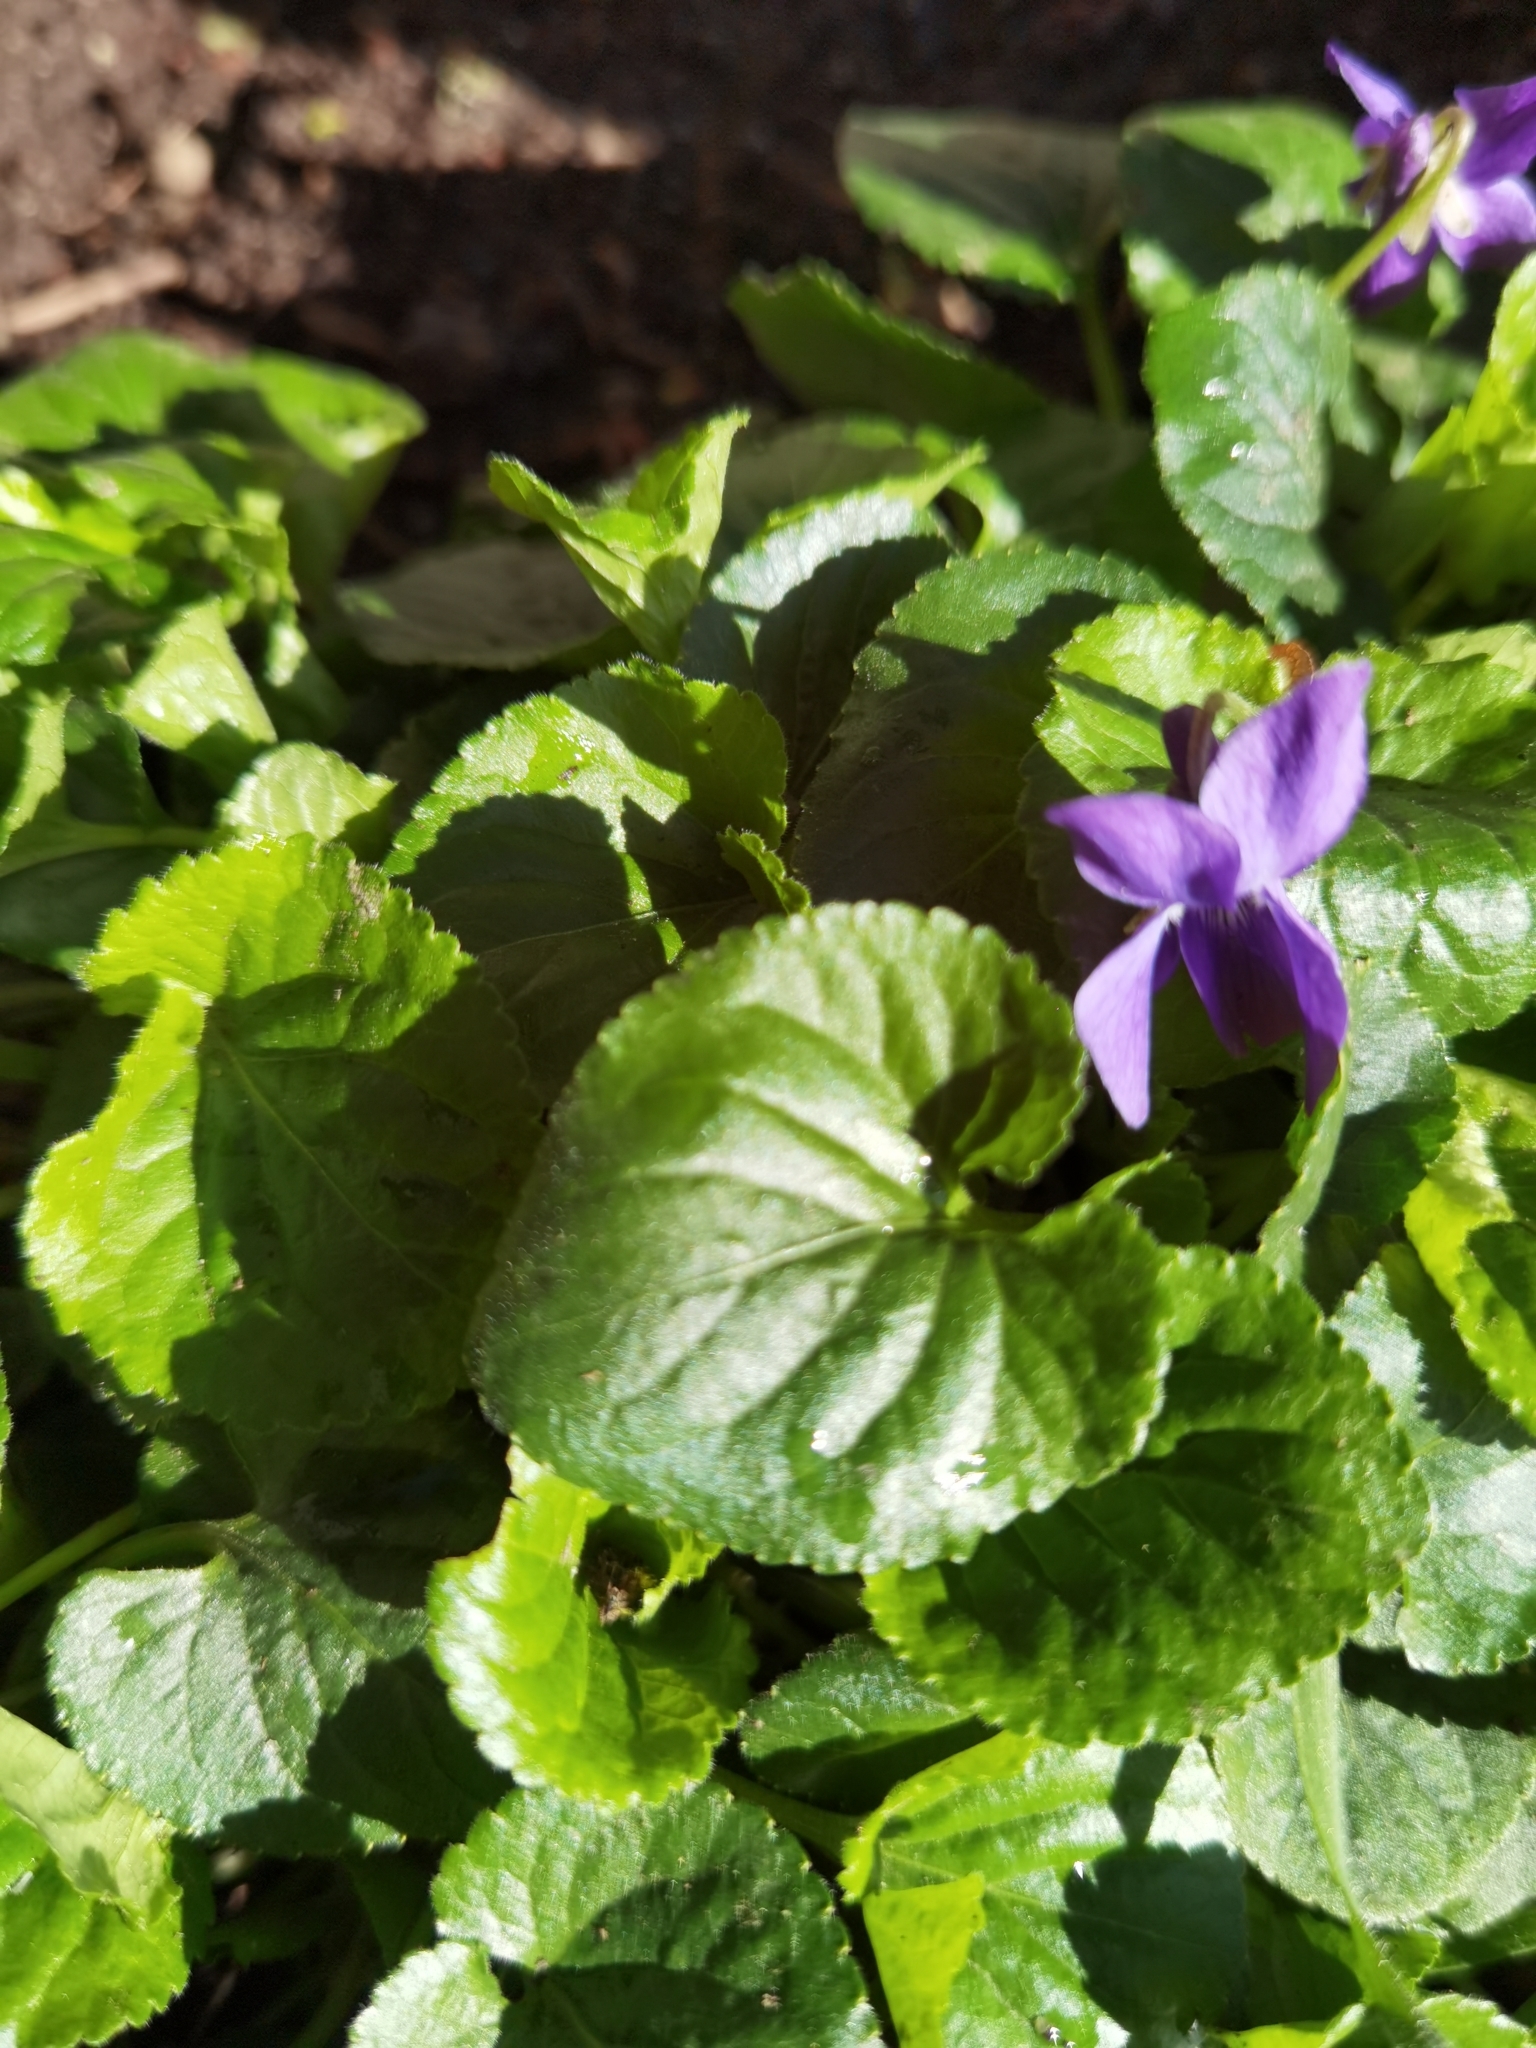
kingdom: Plantae
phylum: Tracheophyta
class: Magnoliopsida
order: Malpighiales
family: Violaceae
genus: Viola
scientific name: Viola odorata
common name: Sweet violet
